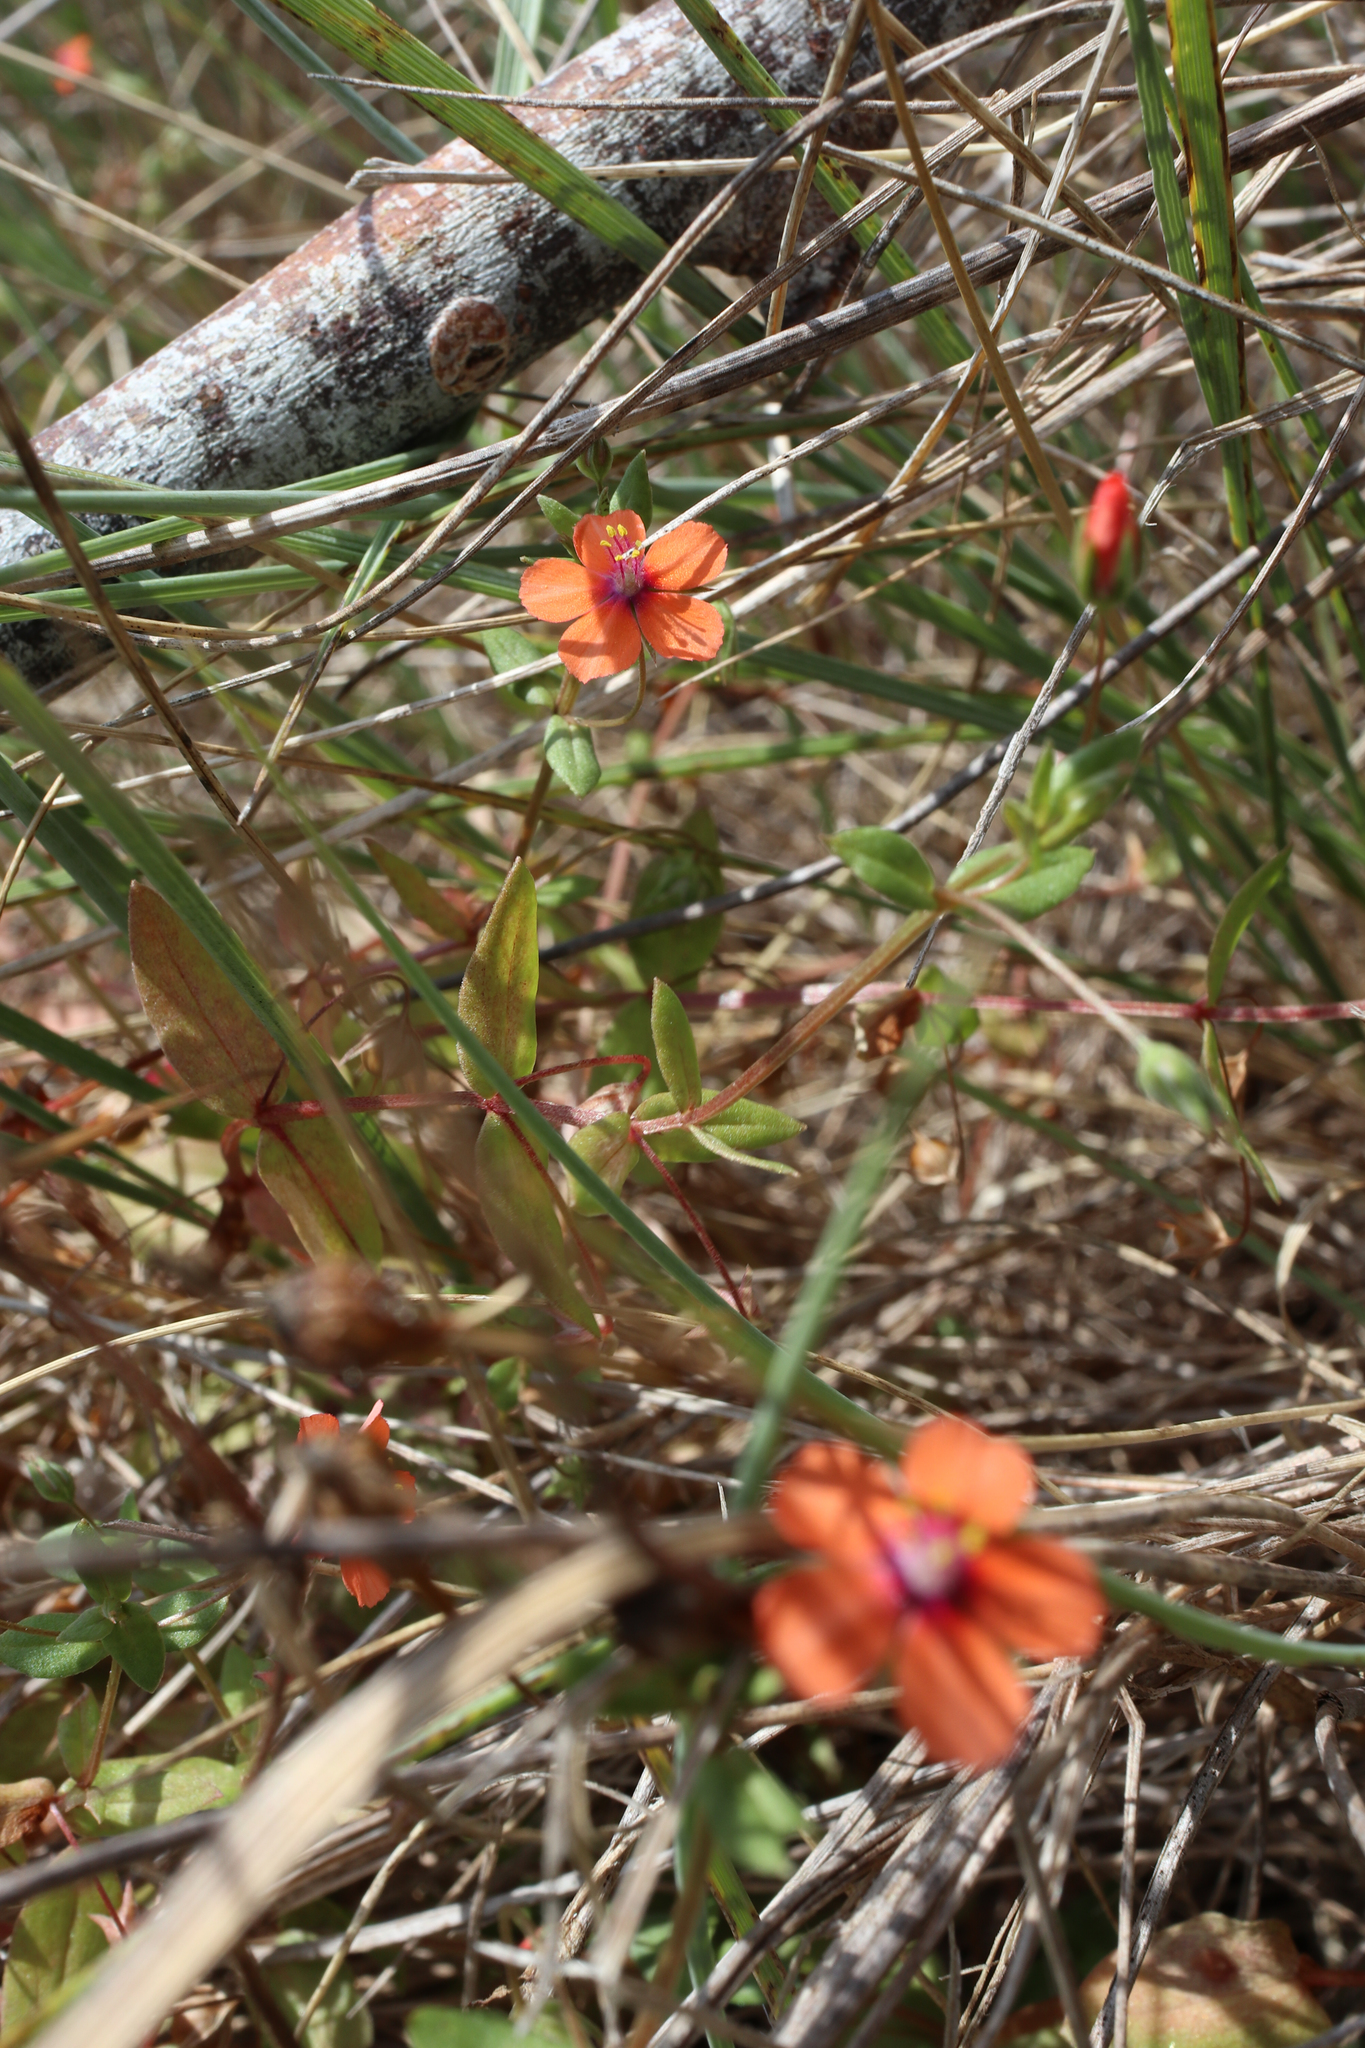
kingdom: Plantae
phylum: Tracheophyta
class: Magnoliopsida
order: Ericales
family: Primulaceae
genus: Lysimachia
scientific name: Lysimachia arvensis
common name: Scarlet pimpernel
